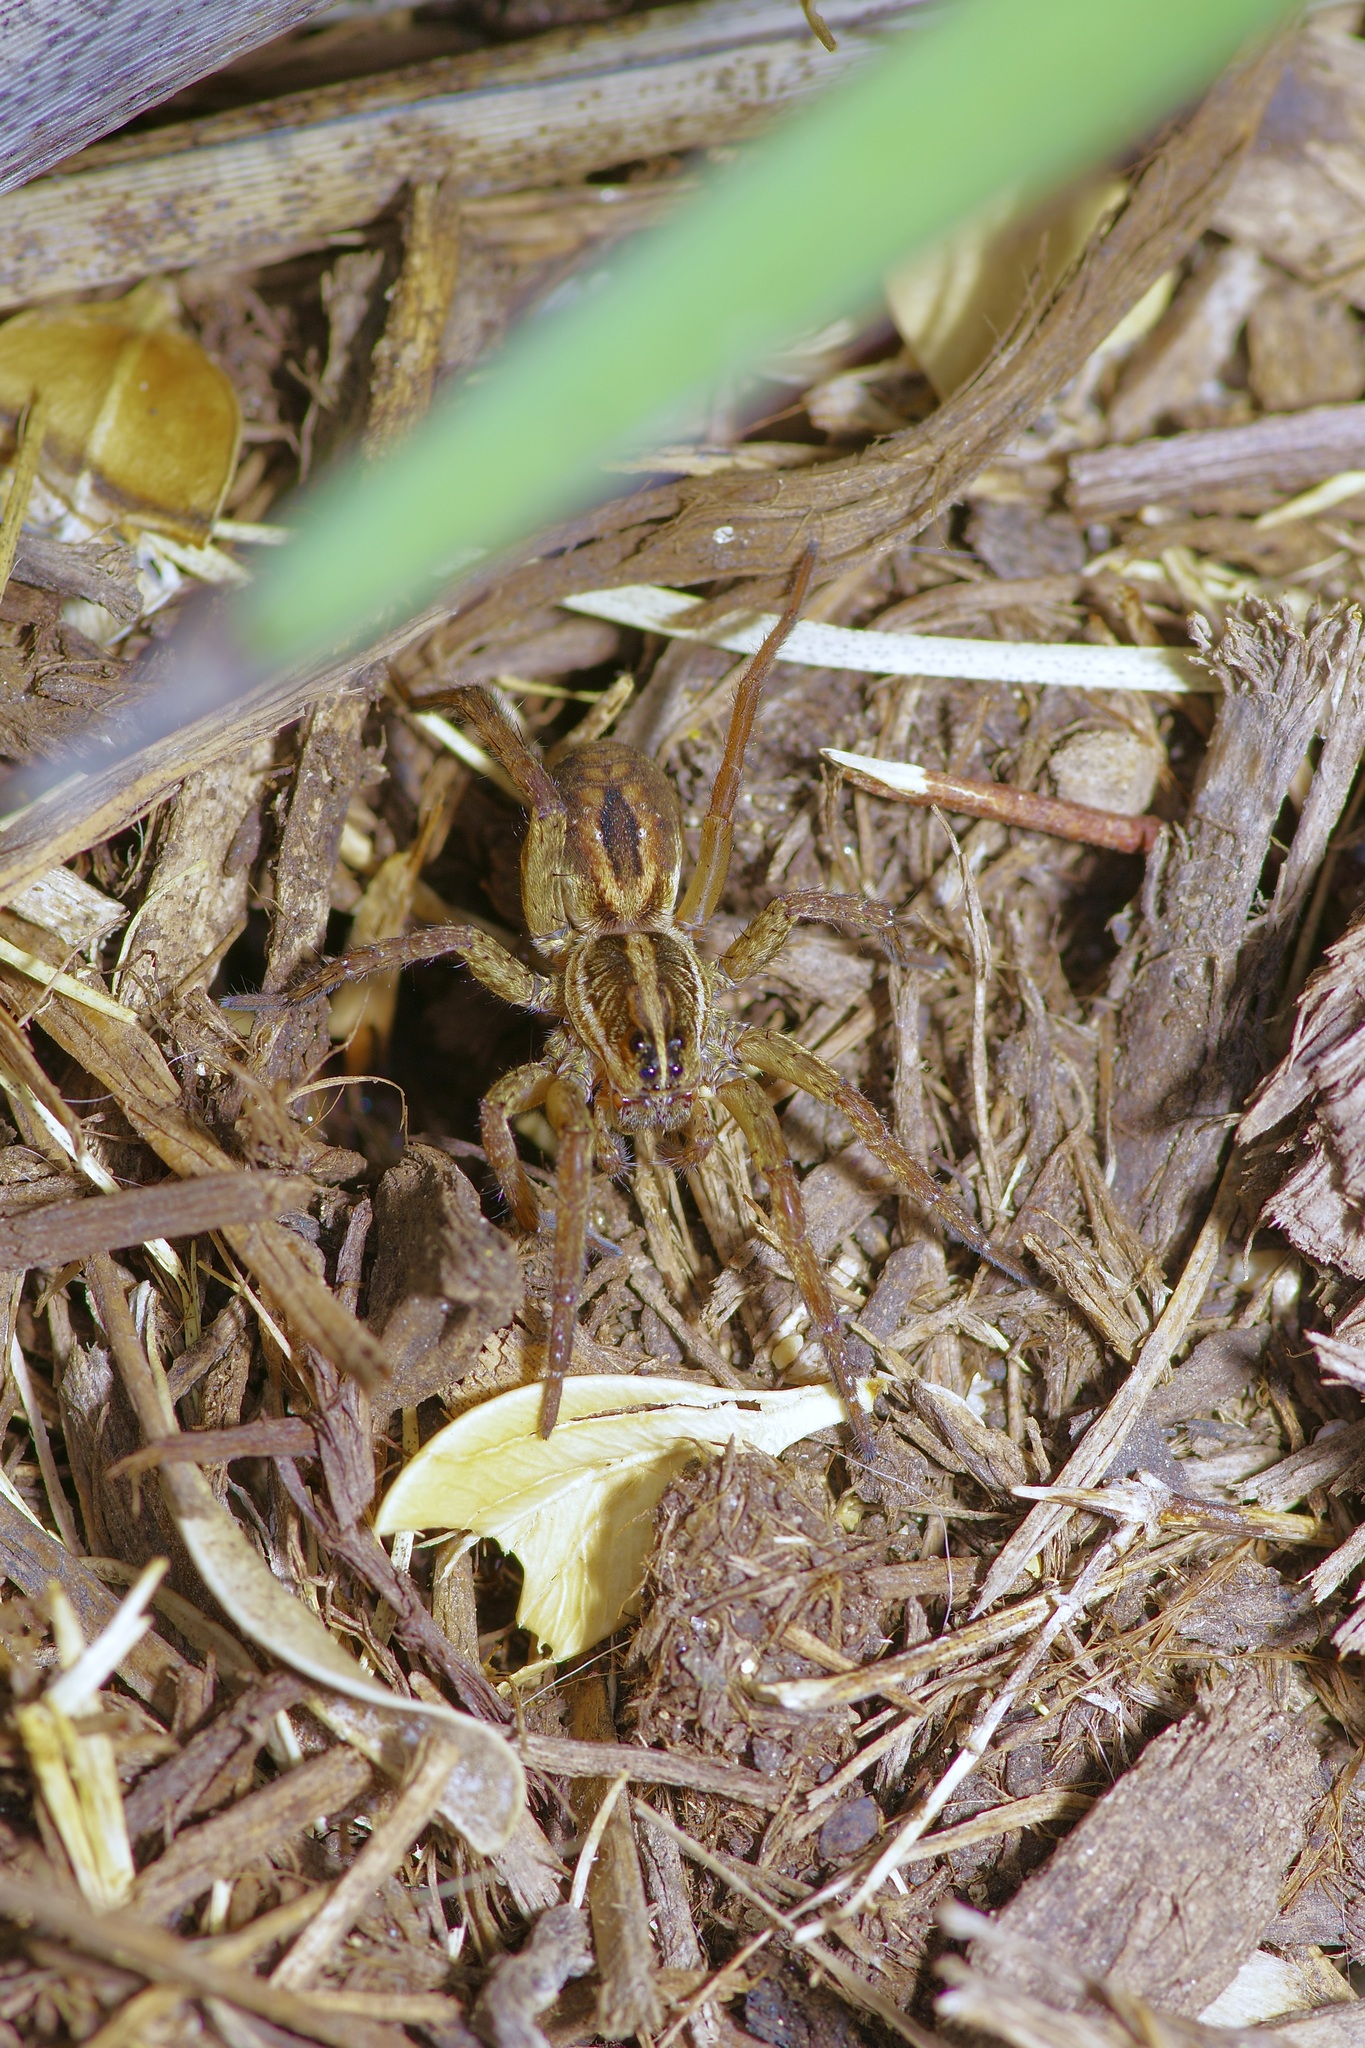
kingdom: Animalia
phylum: Arthropoda
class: Arachnida
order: Araneae
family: Lycosidae
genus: Tigrosa
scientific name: Tigrosa annexa
